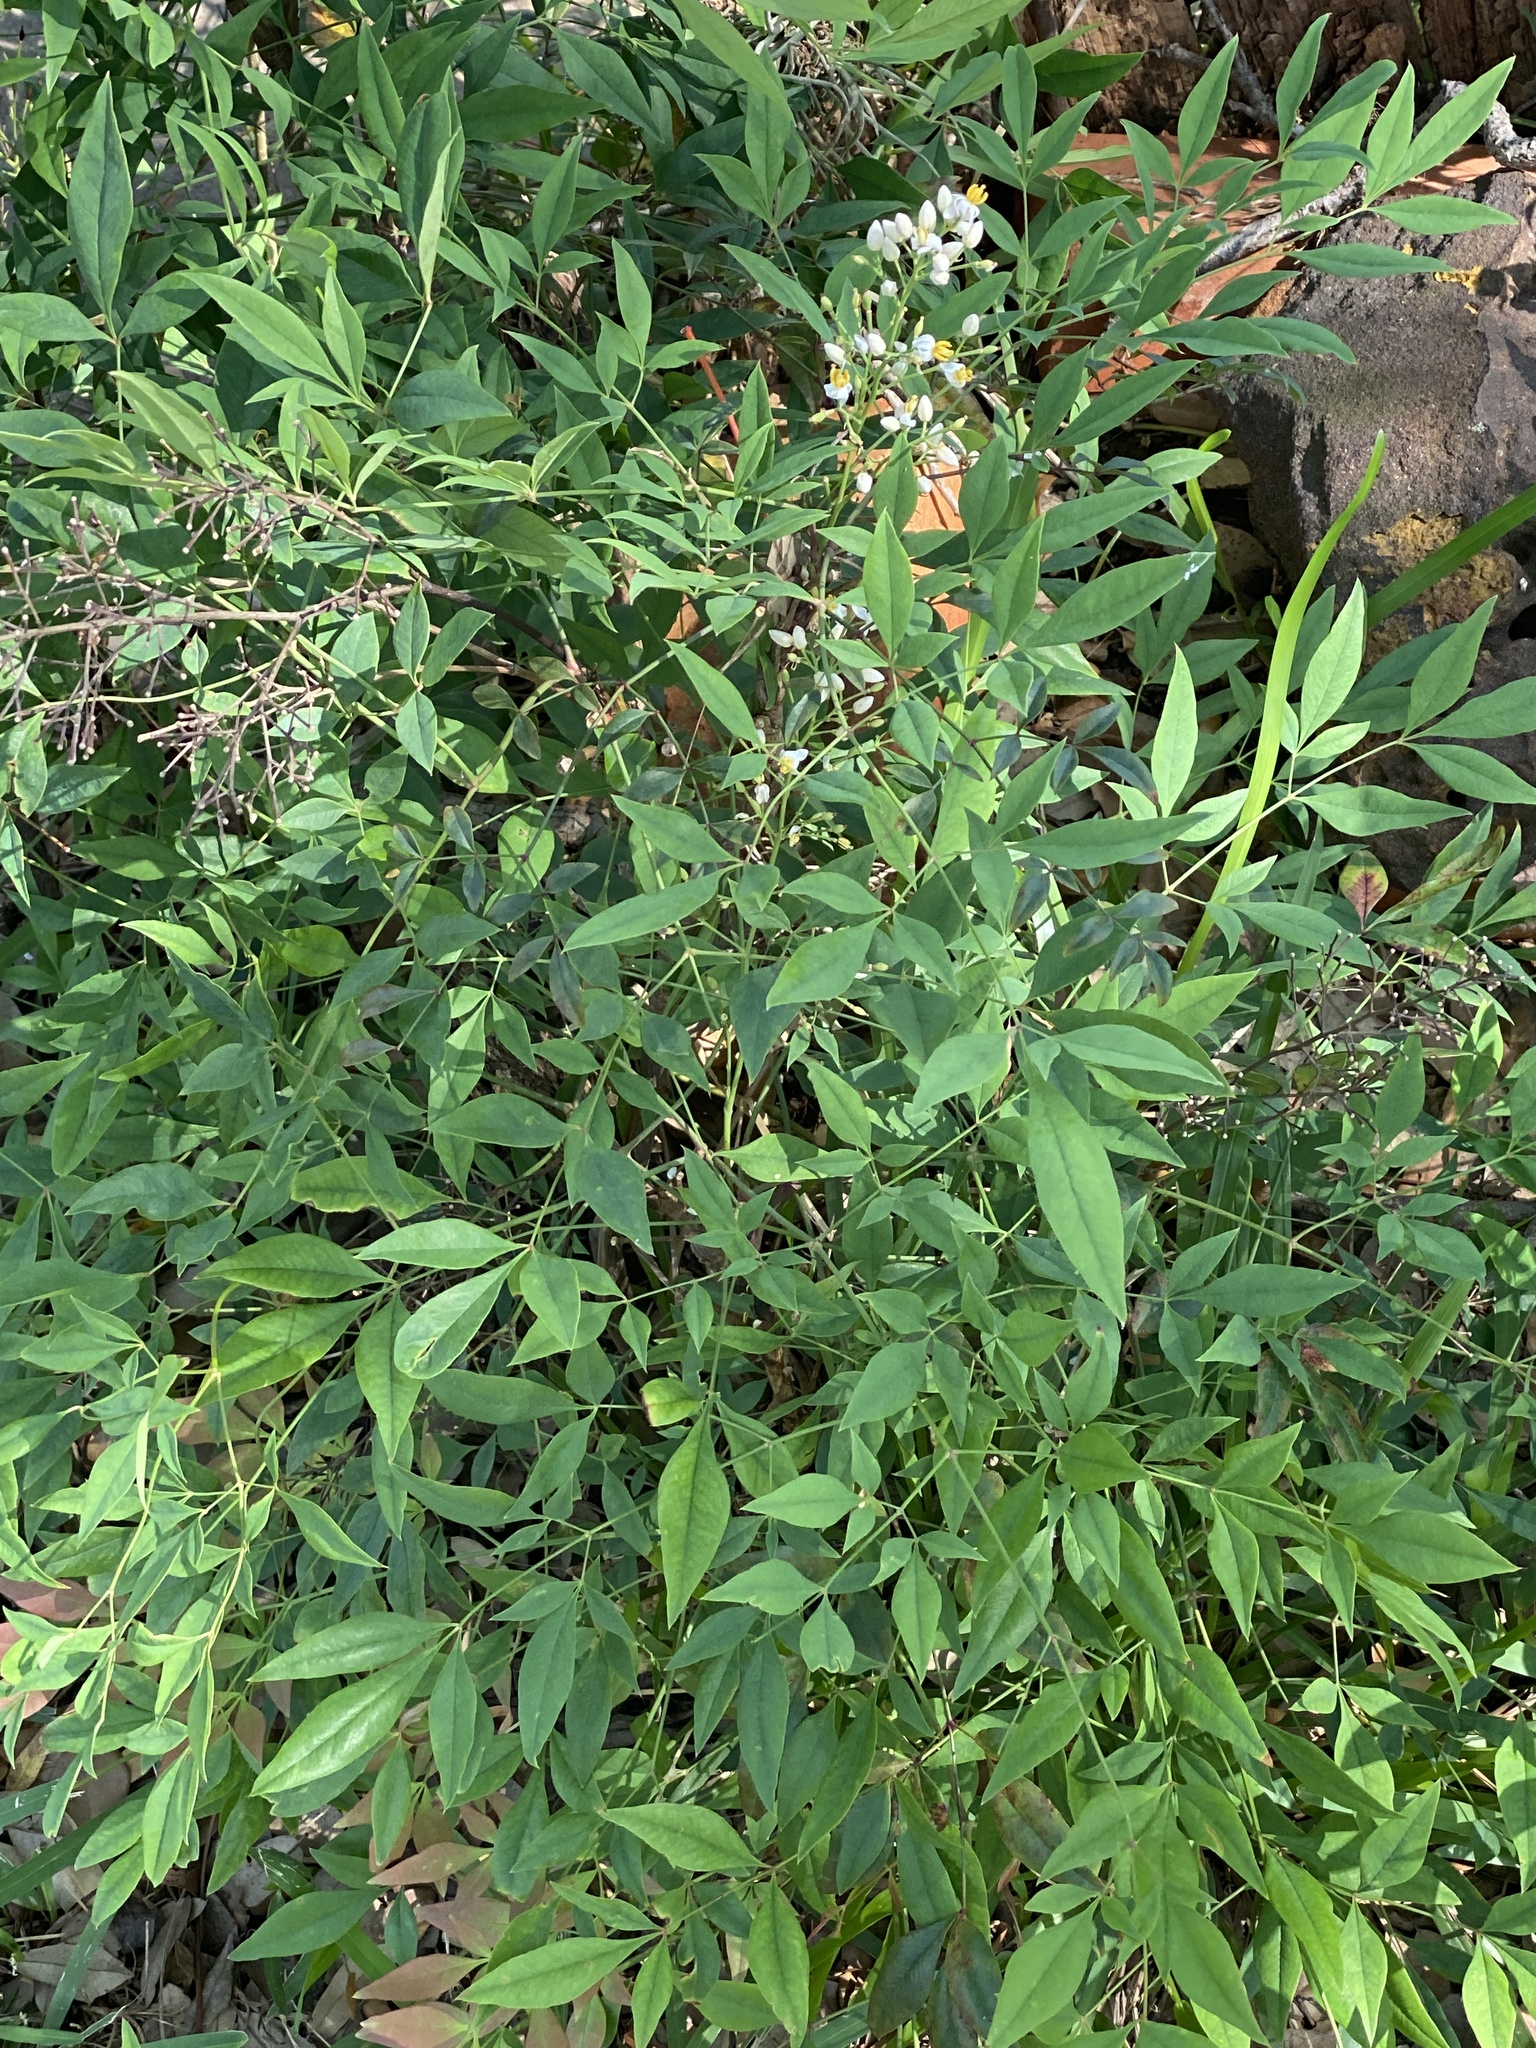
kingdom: Plantae
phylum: Tracheophyta
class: Magnoliopsida
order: Ranunculales
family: Berberidaceae
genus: Nandina
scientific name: Nandina domestica
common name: Sacred bamboo
